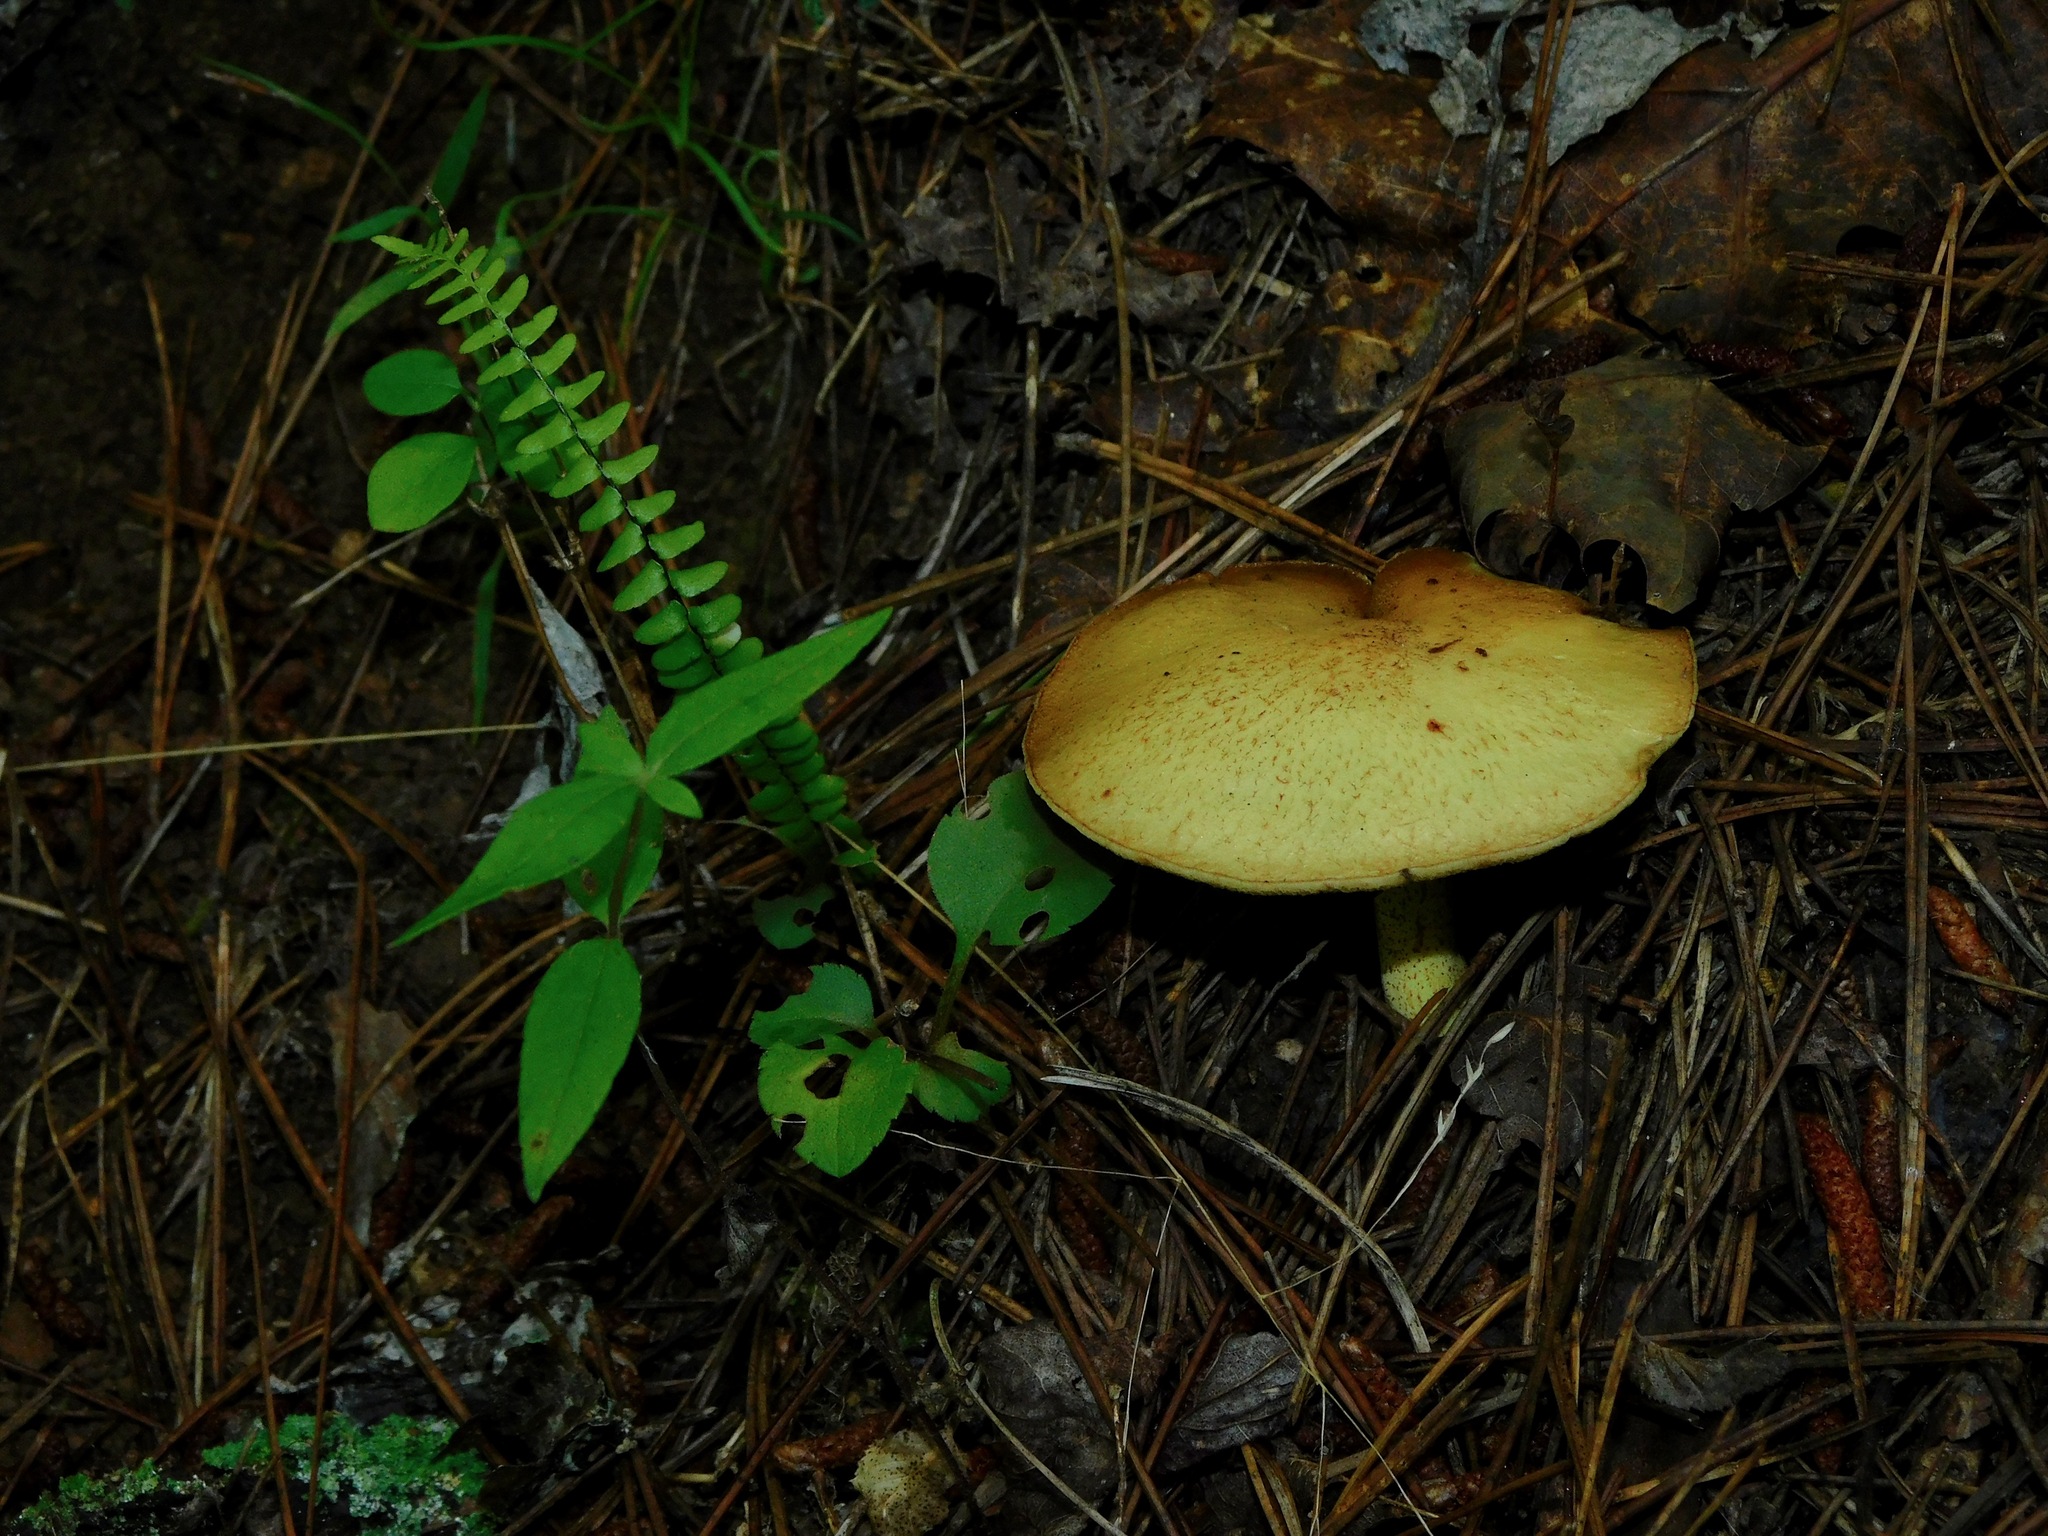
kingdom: Fungi
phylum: Basidiomycota
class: Agaricomycetes
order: Boletales
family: Boletaceae
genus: Retiboletus
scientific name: Retiboletus ornatipes
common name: Ornate-stalked bolete
